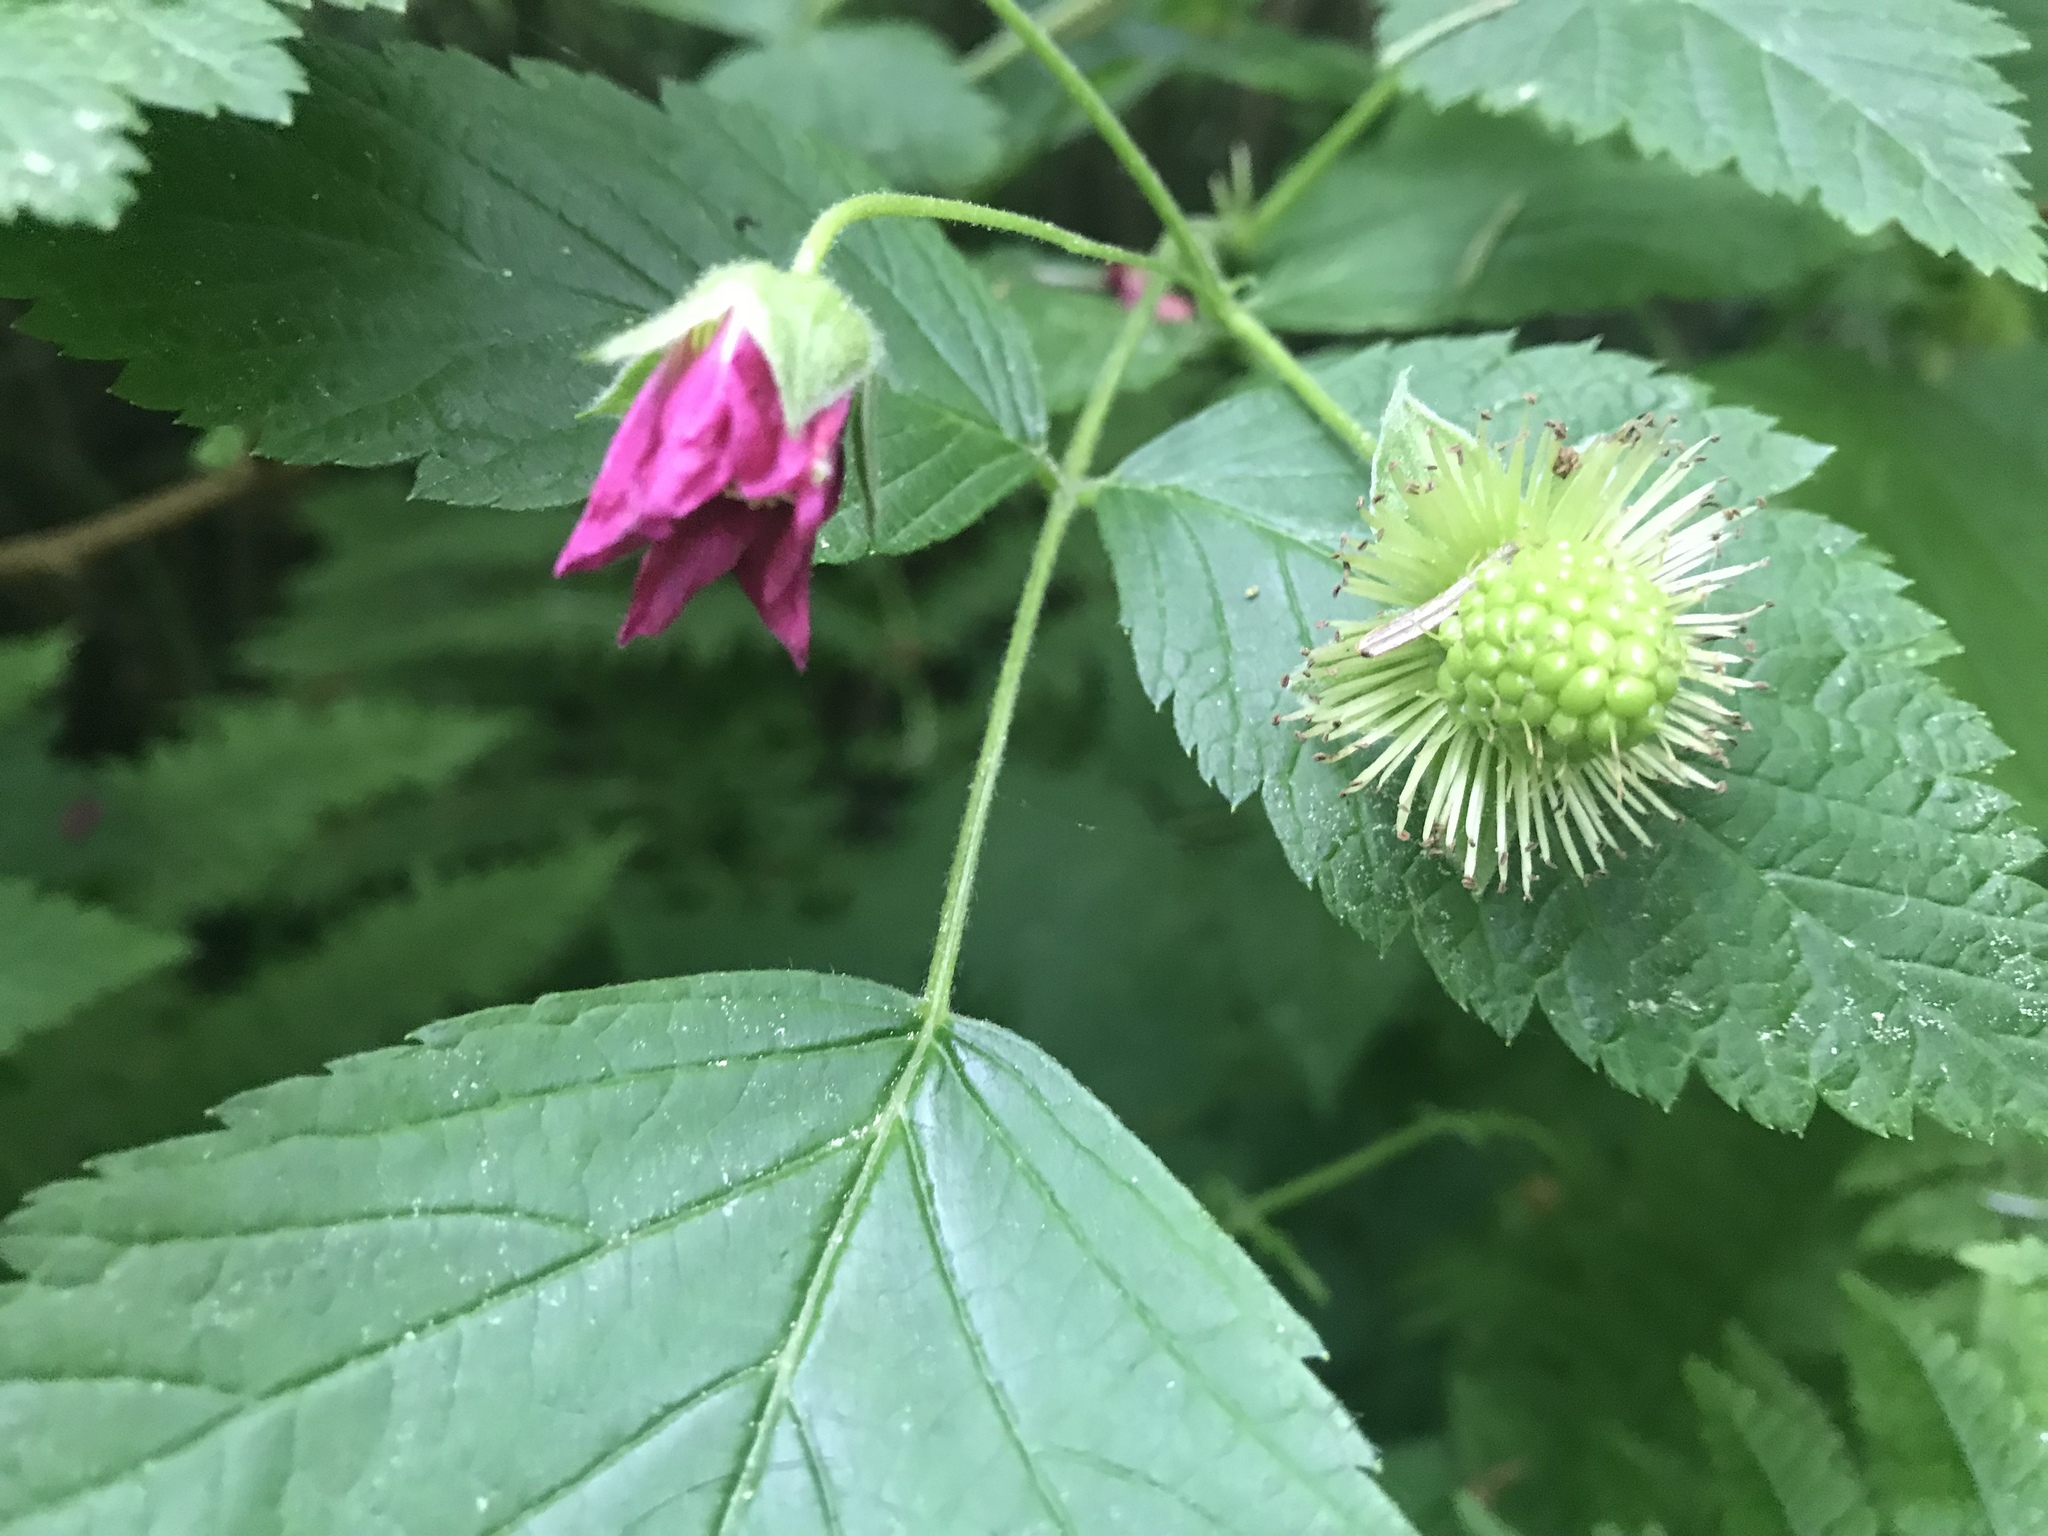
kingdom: Plantae
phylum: Tracheophyta
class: Magnoliopsida
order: Rosales
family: Rosaceae
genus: Rubus
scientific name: Rubus spectabilis
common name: Salmonberry
